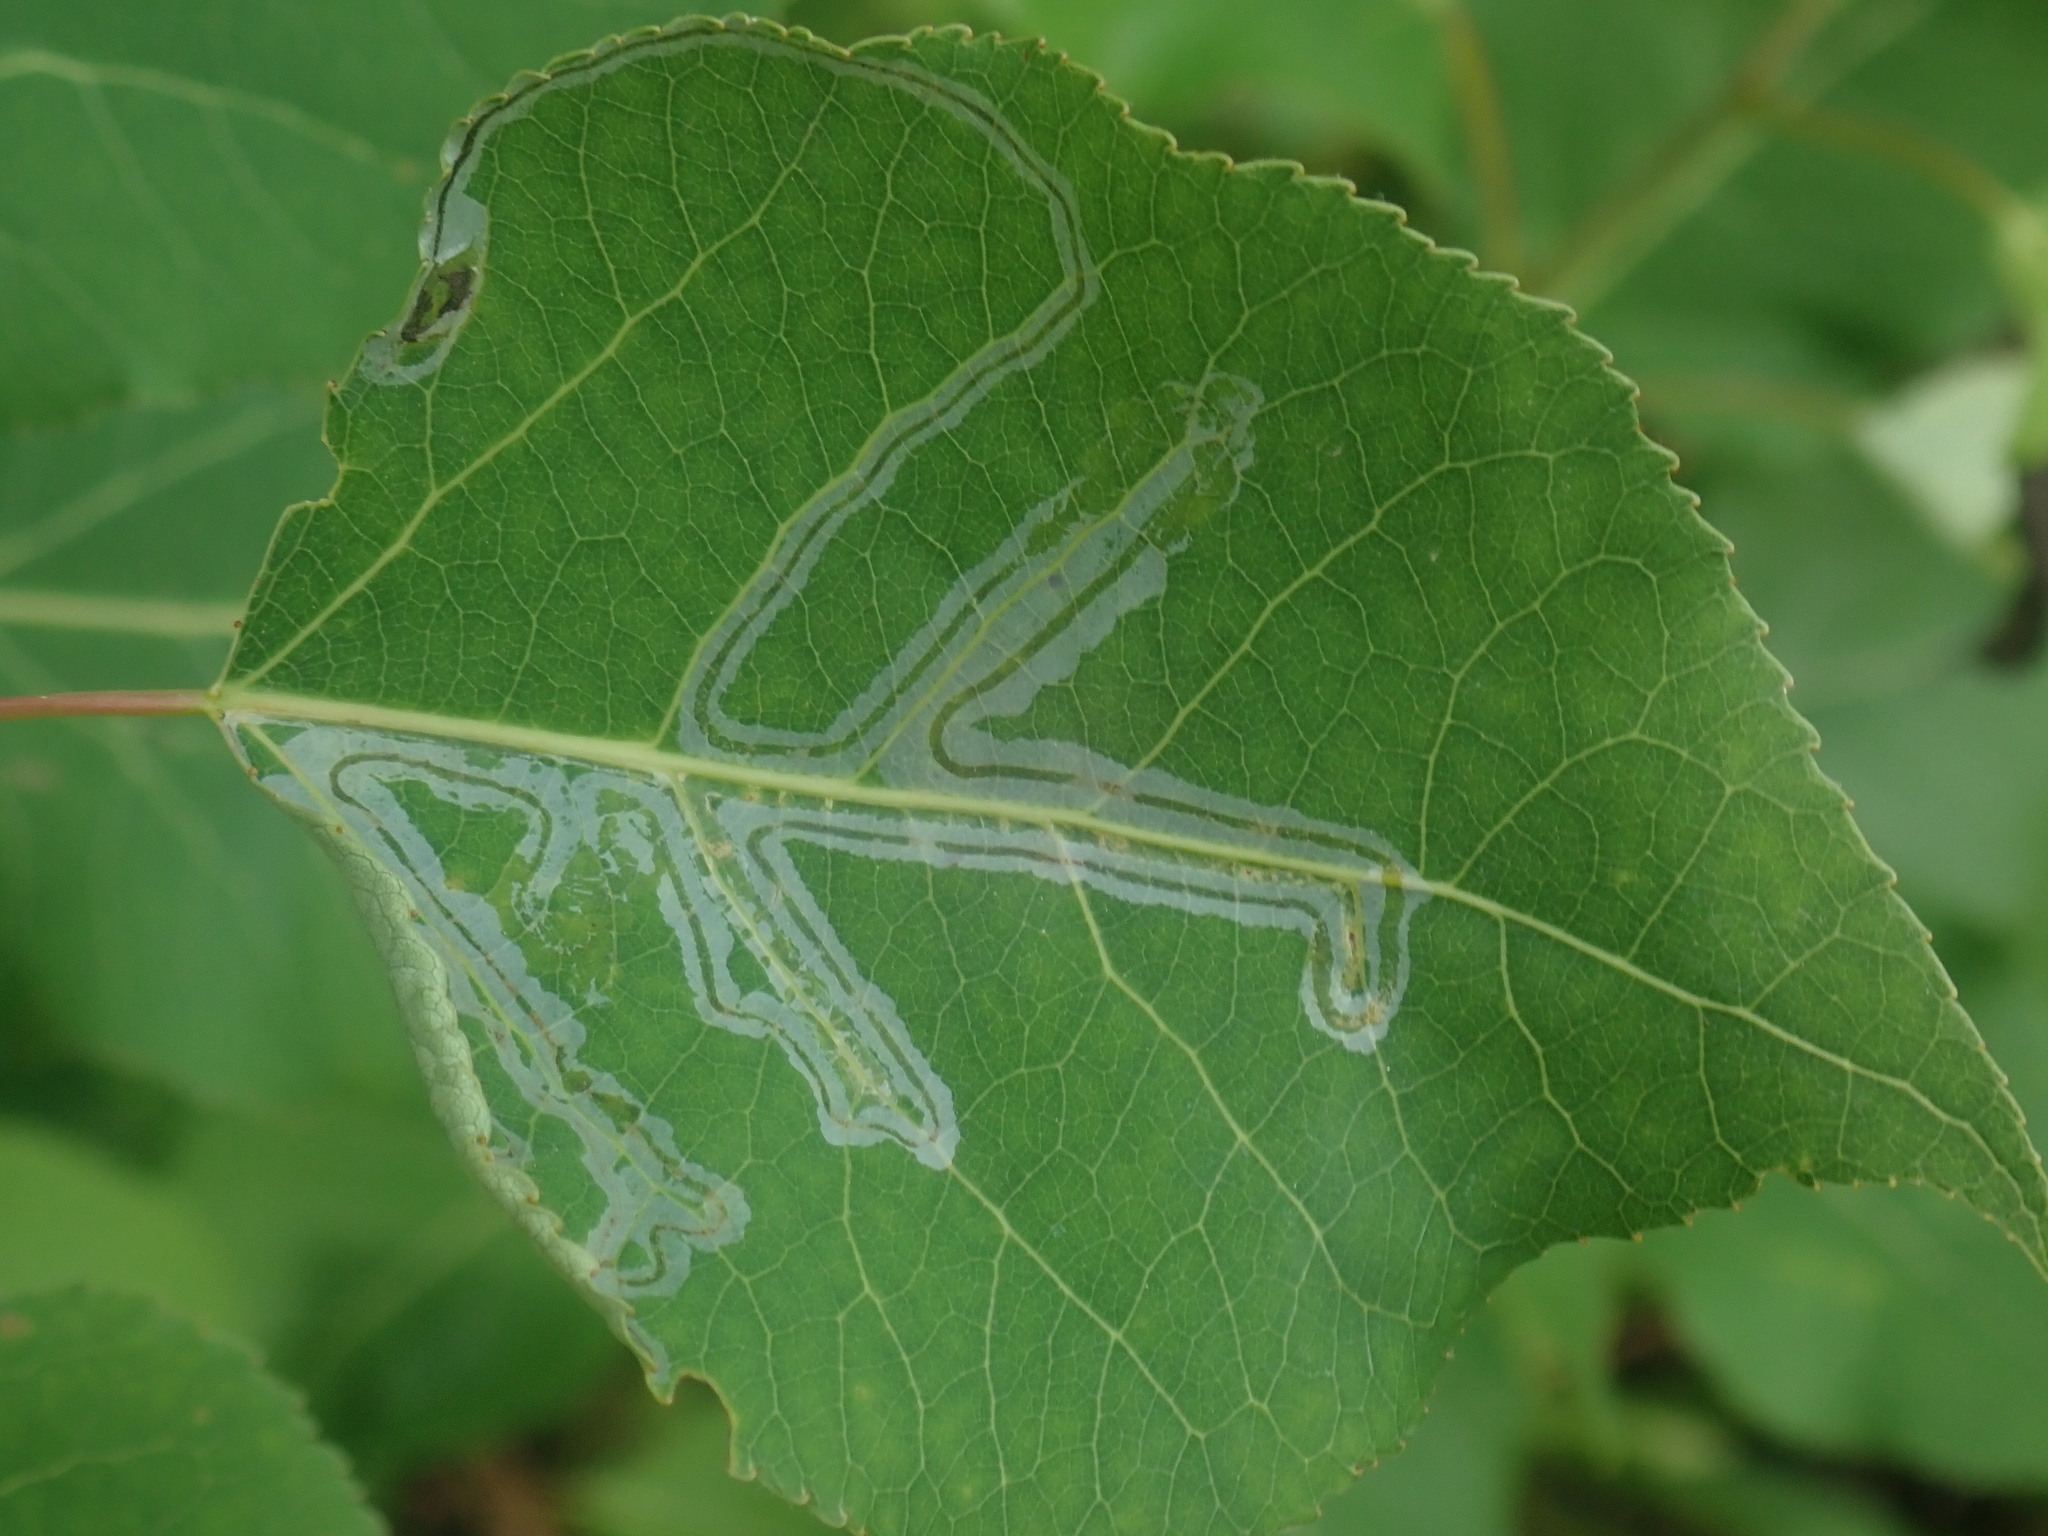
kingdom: Animalia
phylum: Arthropoda
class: Insecta
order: Lepidoptera
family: Gracillariidae
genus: Phyllocnistis
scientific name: Phyllocnistis populiella
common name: Aspen serpentine leafminer moth
